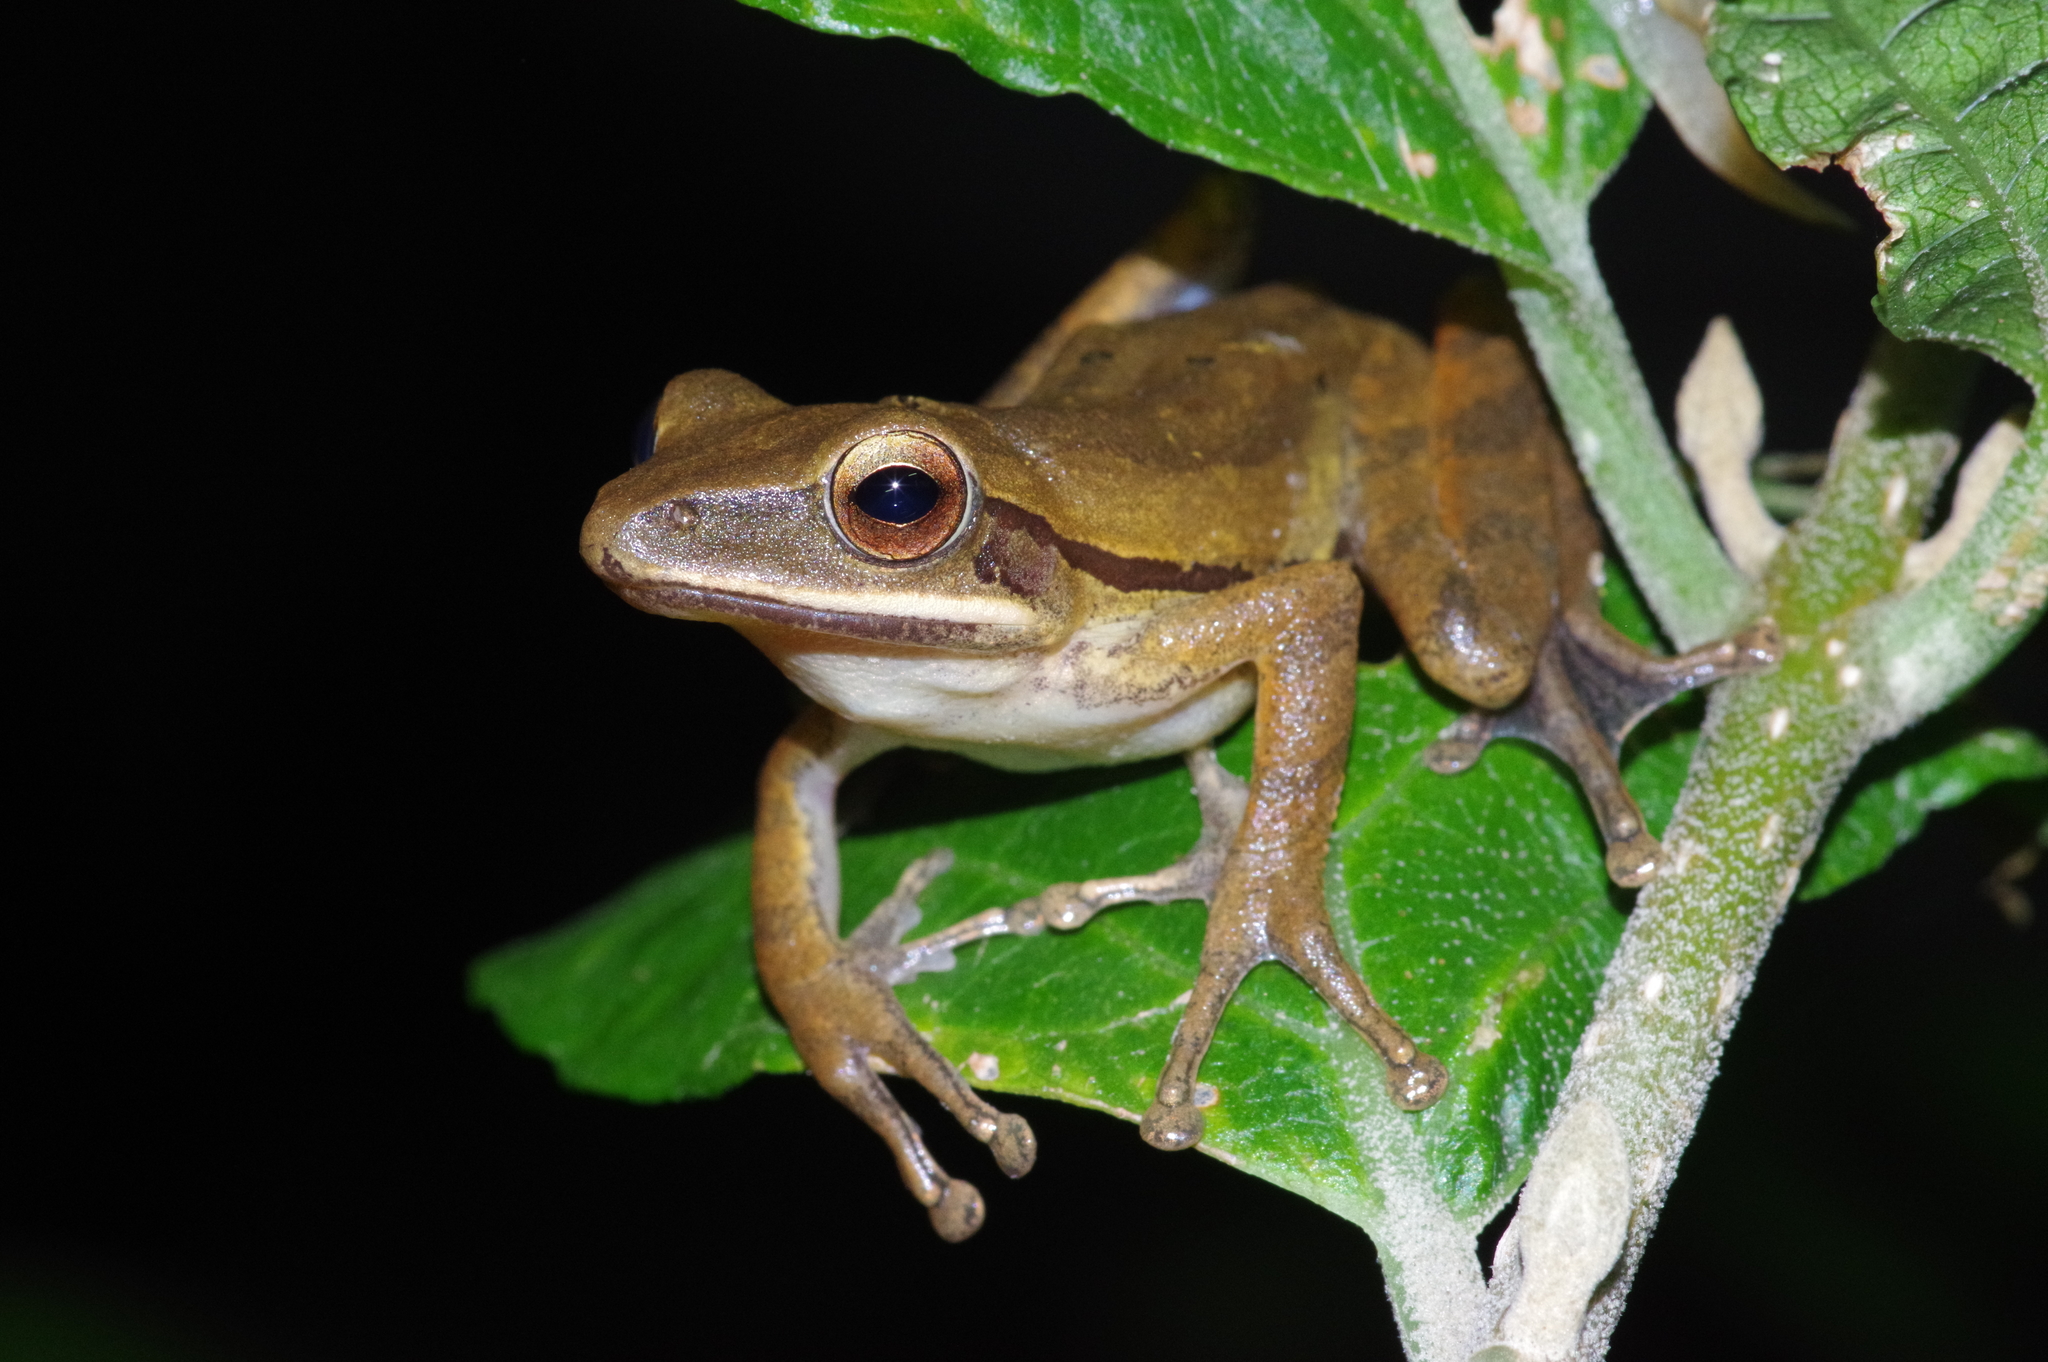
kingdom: Animalia
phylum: Chordata
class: Amphibia
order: Anura
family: Rhacophoridae
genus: Polypedates
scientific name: Polypedates leucomystax
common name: Common tree frog/four-lined tree frog
